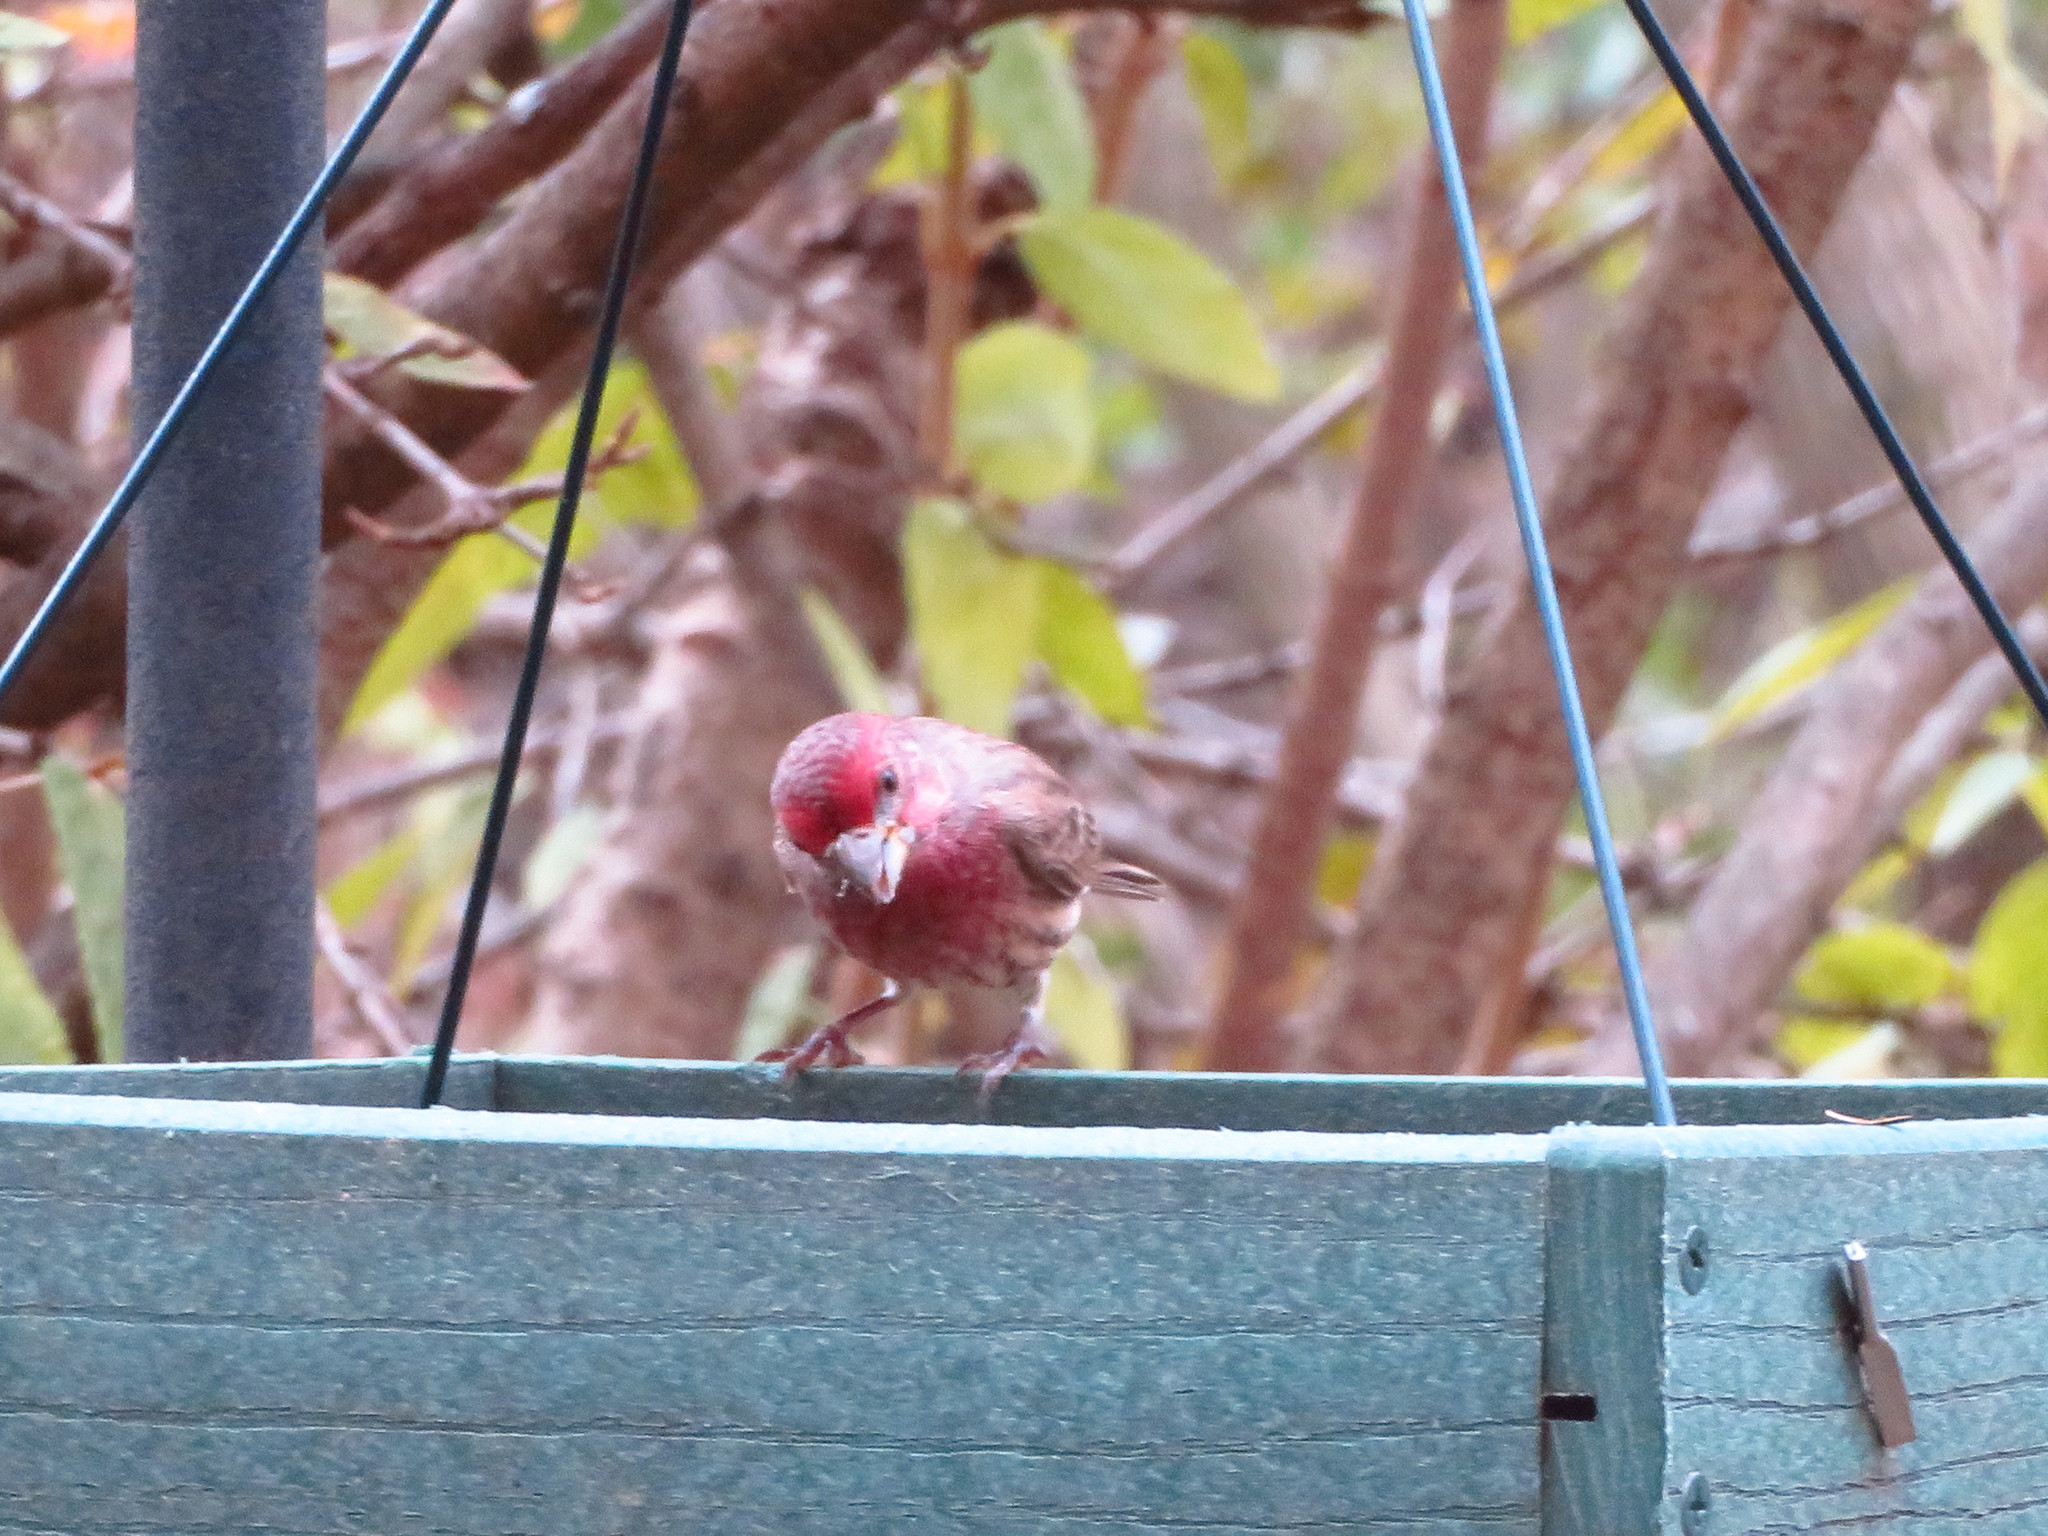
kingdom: Animalia
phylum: Chordata
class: Aves
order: Passeriformes
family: Fringillidae
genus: Haemorhous
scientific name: Haemorhous mexicanus
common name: House finch
